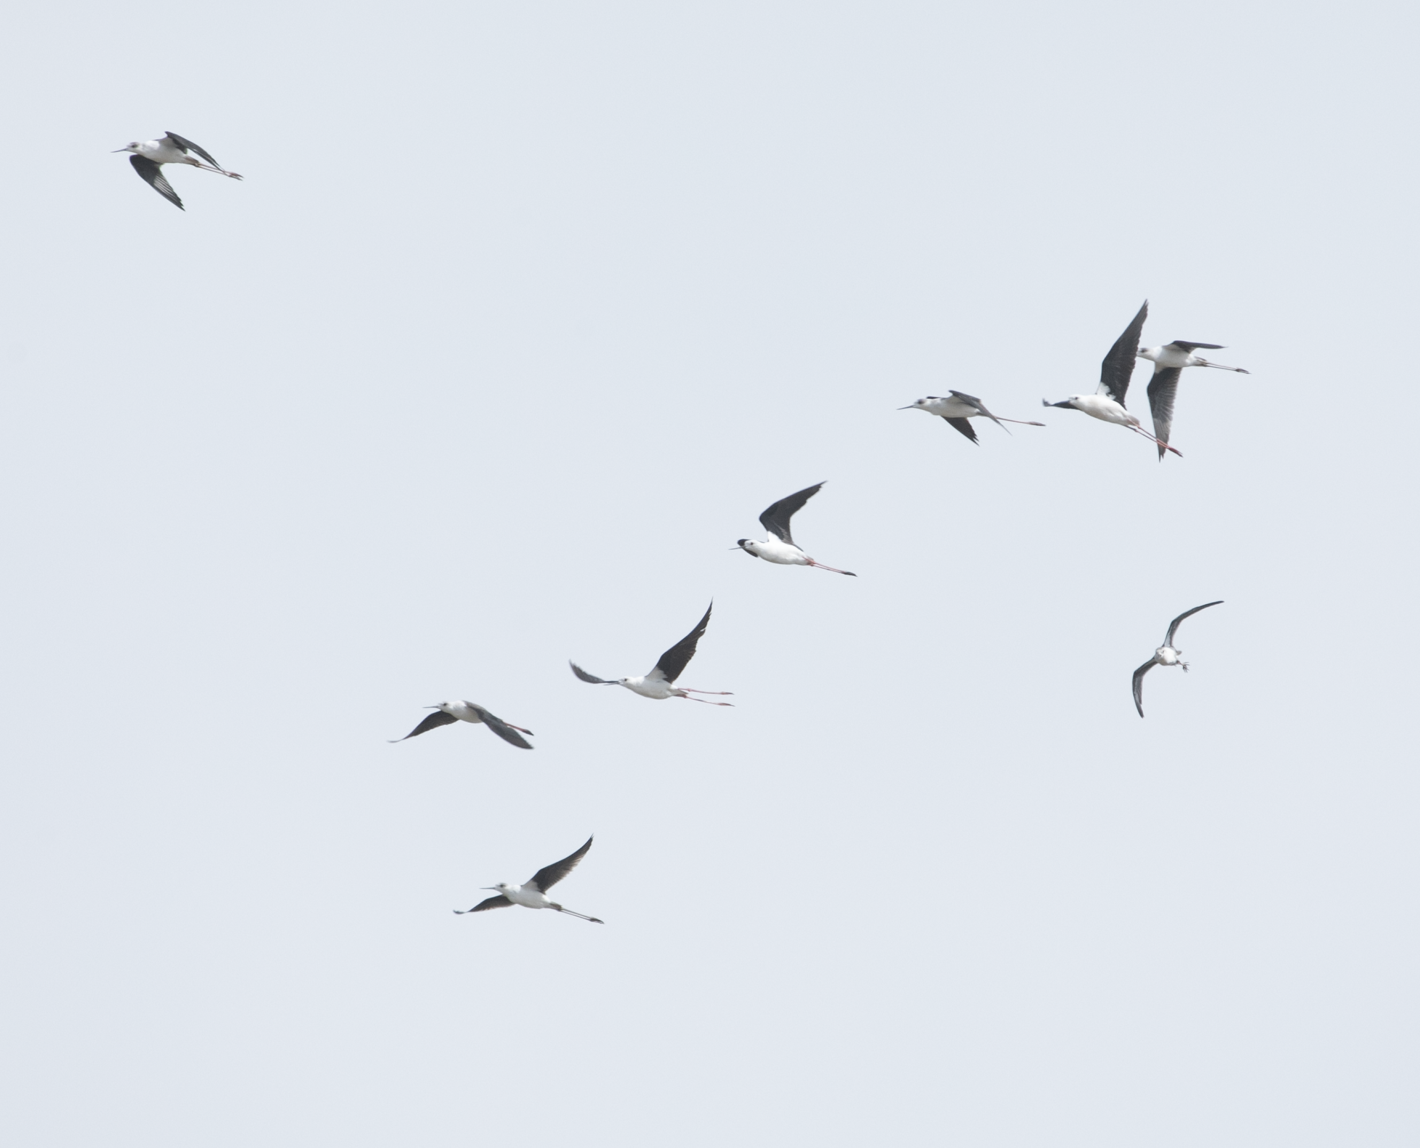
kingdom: Animalia
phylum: Chordata
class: Aves
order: Charadriiformes
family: Recurvirostridae
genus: Himantopus
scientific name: Himantopus himantopus
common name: Black-winged stilt
